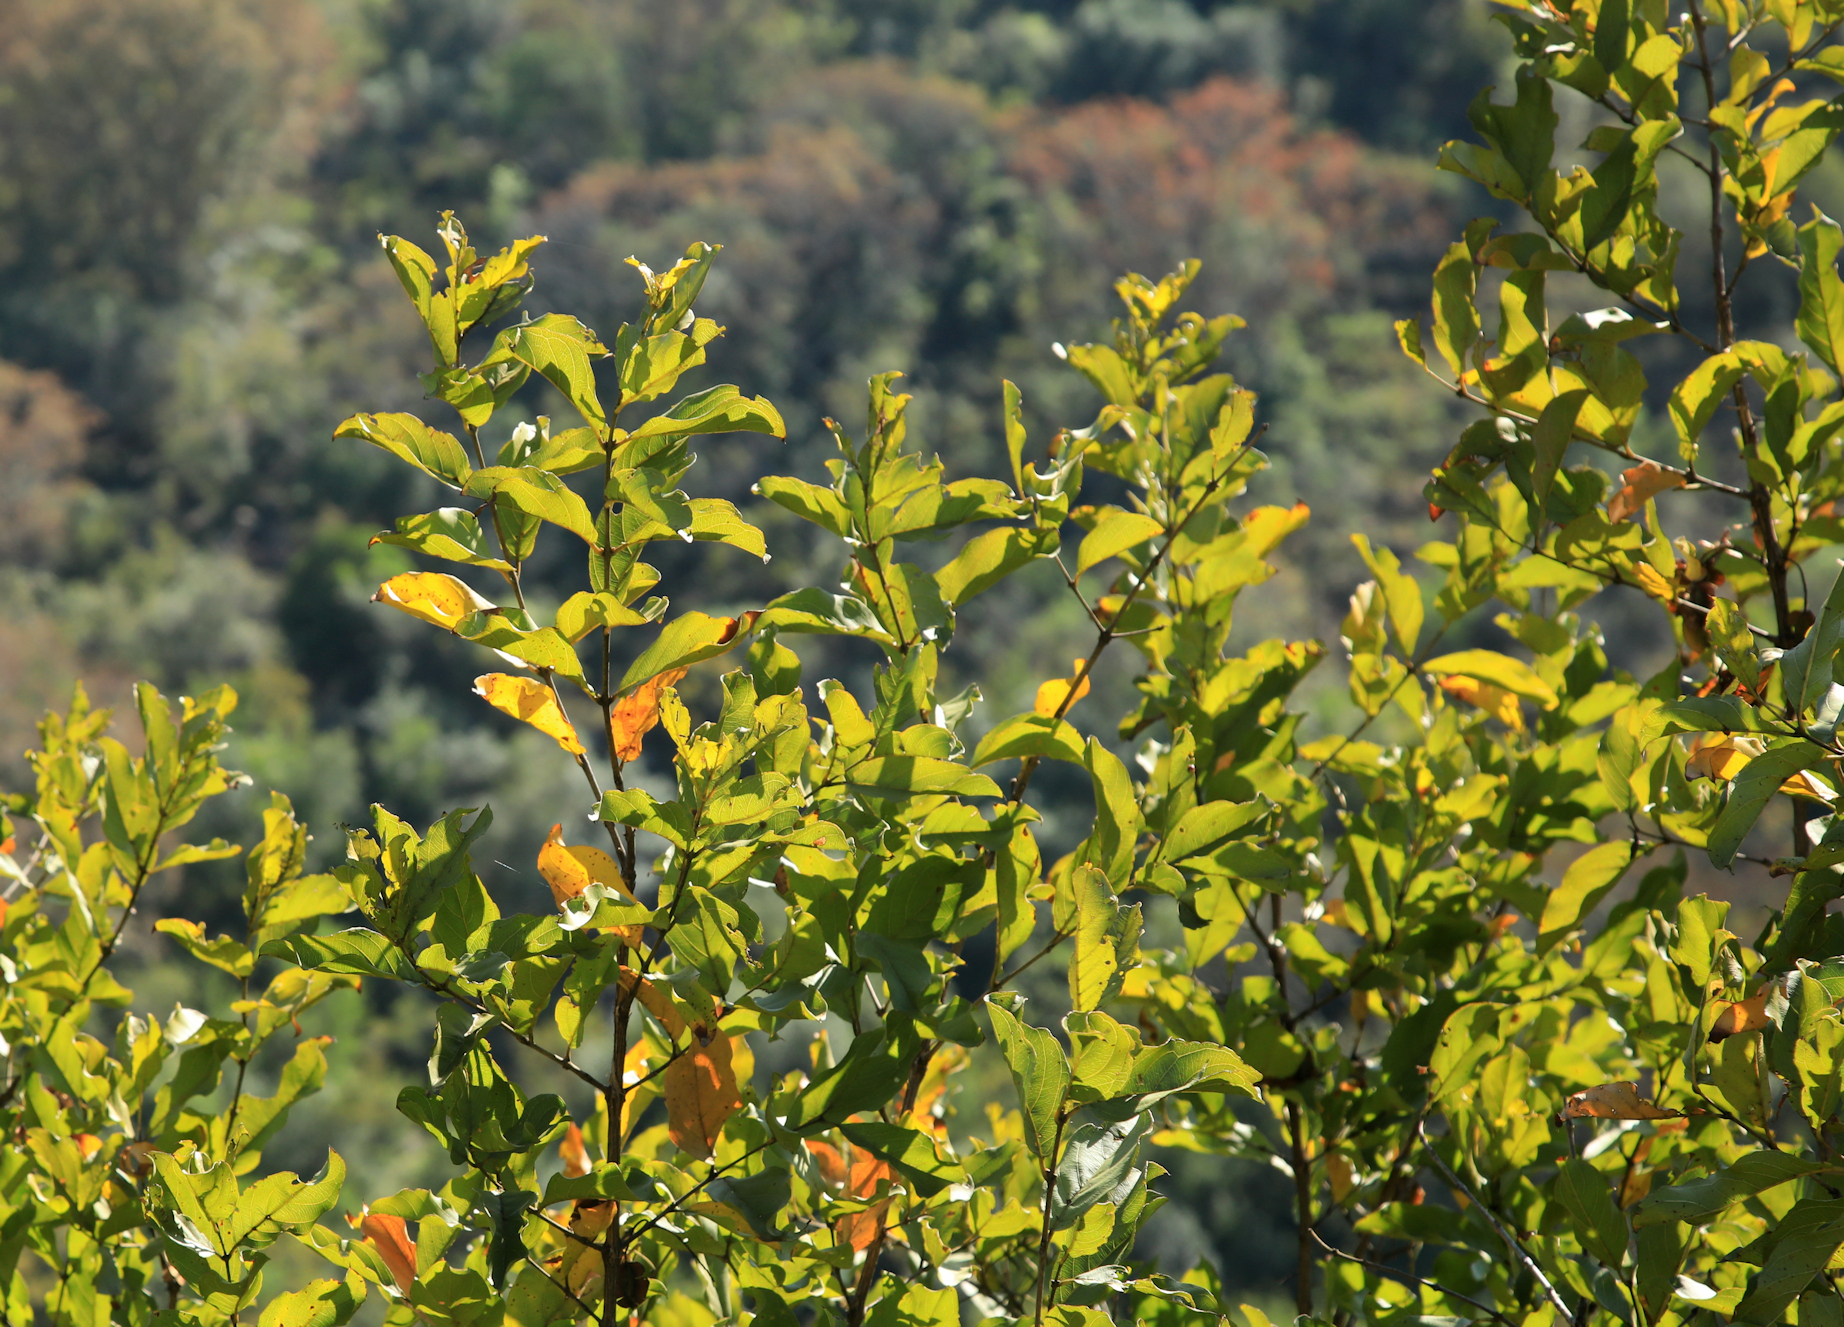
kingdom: Plantae
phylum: Tracheophyta
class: Magnoliopsida
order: Myrtales
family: Combretaceae
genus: Combretum
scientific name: Combretum apiculatum
